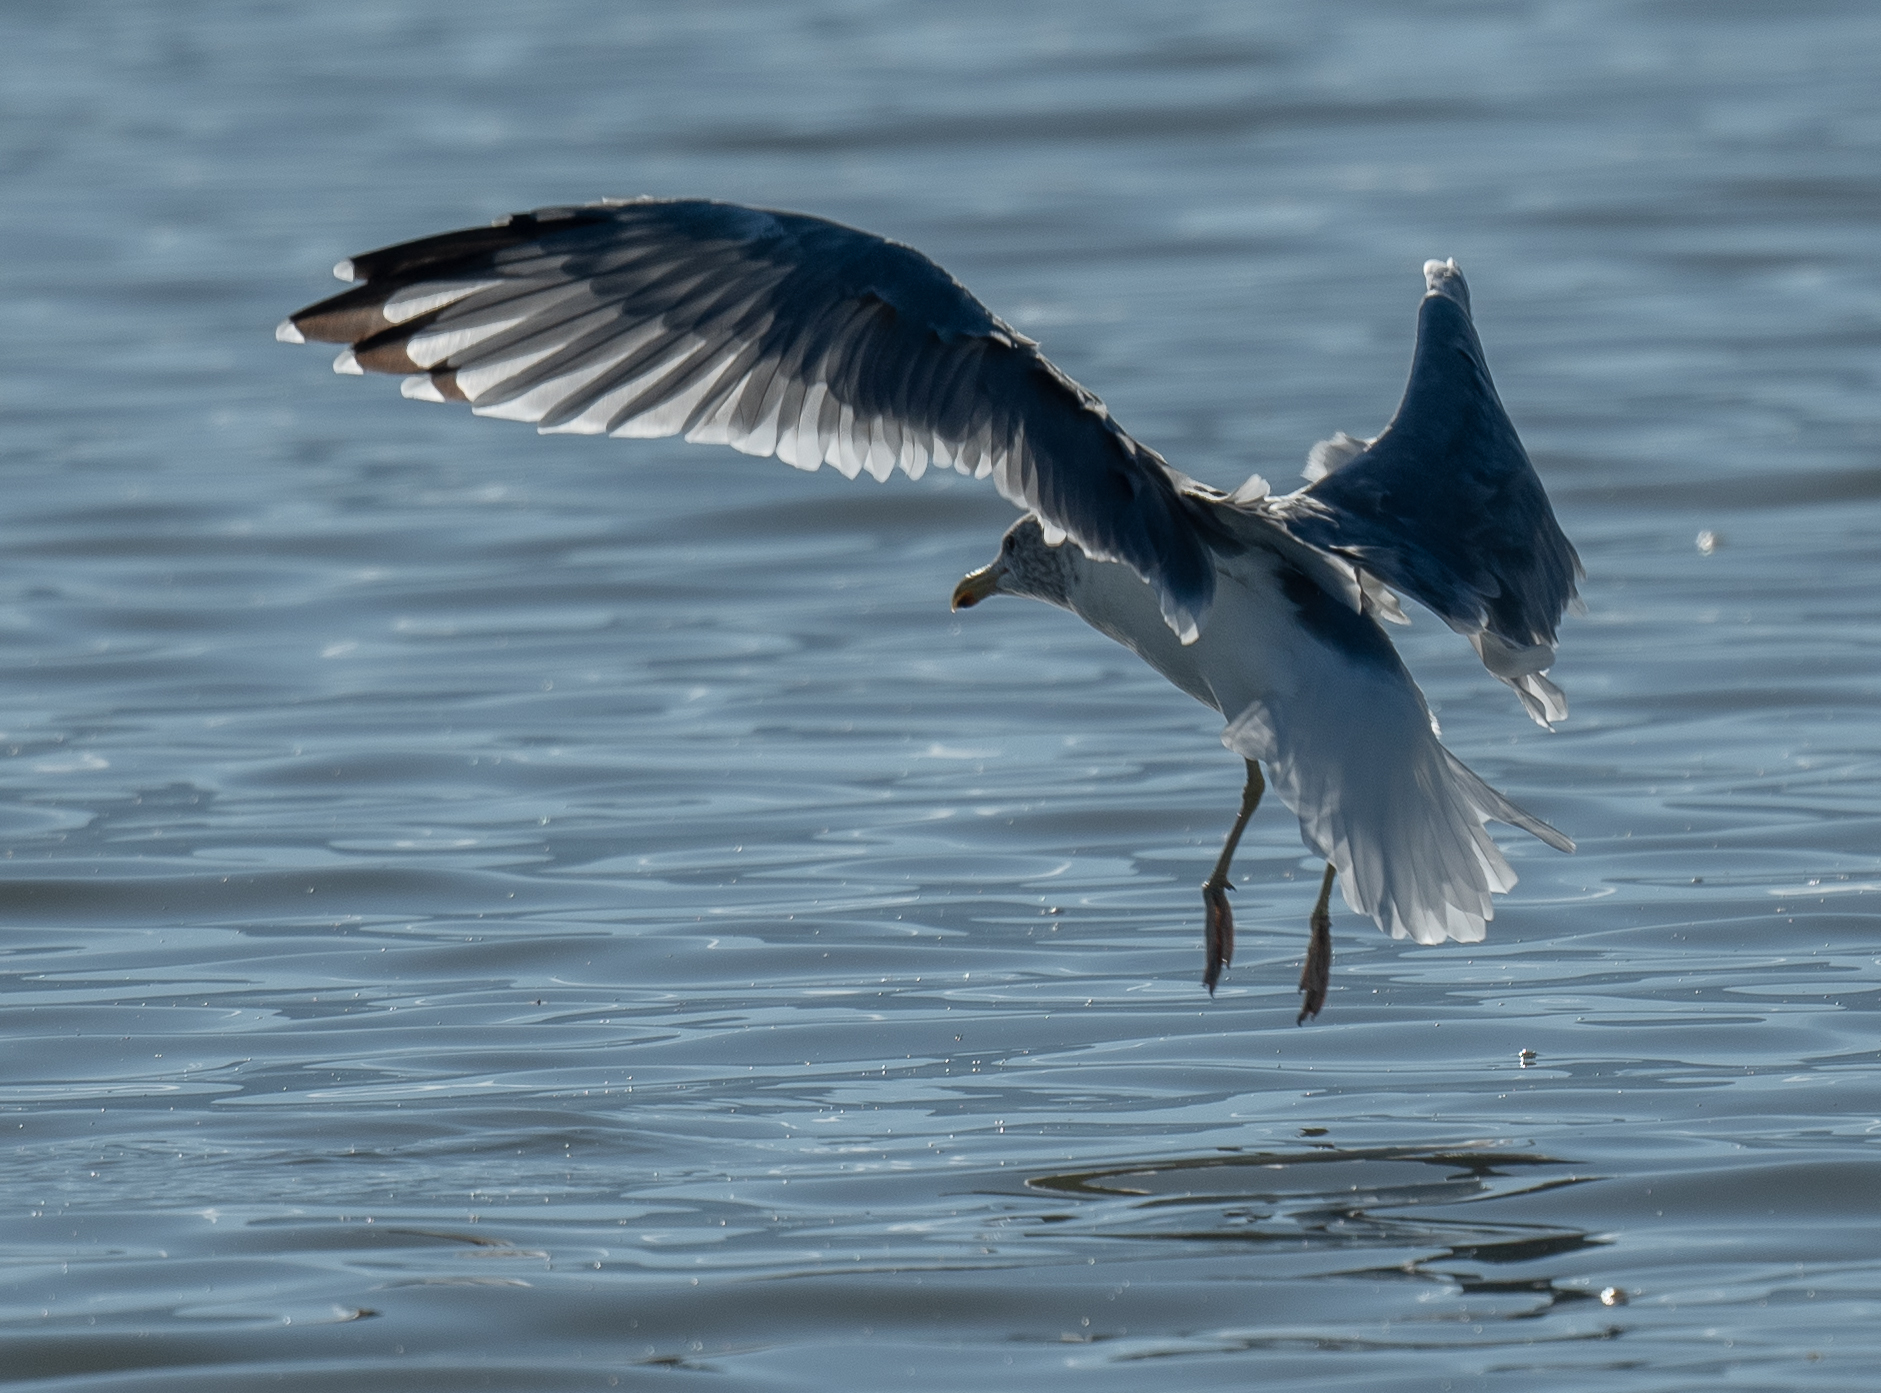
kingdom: Animalia
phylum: Chordata
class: Aves
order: Charadriiformes
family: Laridae
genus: Larus
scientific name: Larus californicus
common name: California gull
